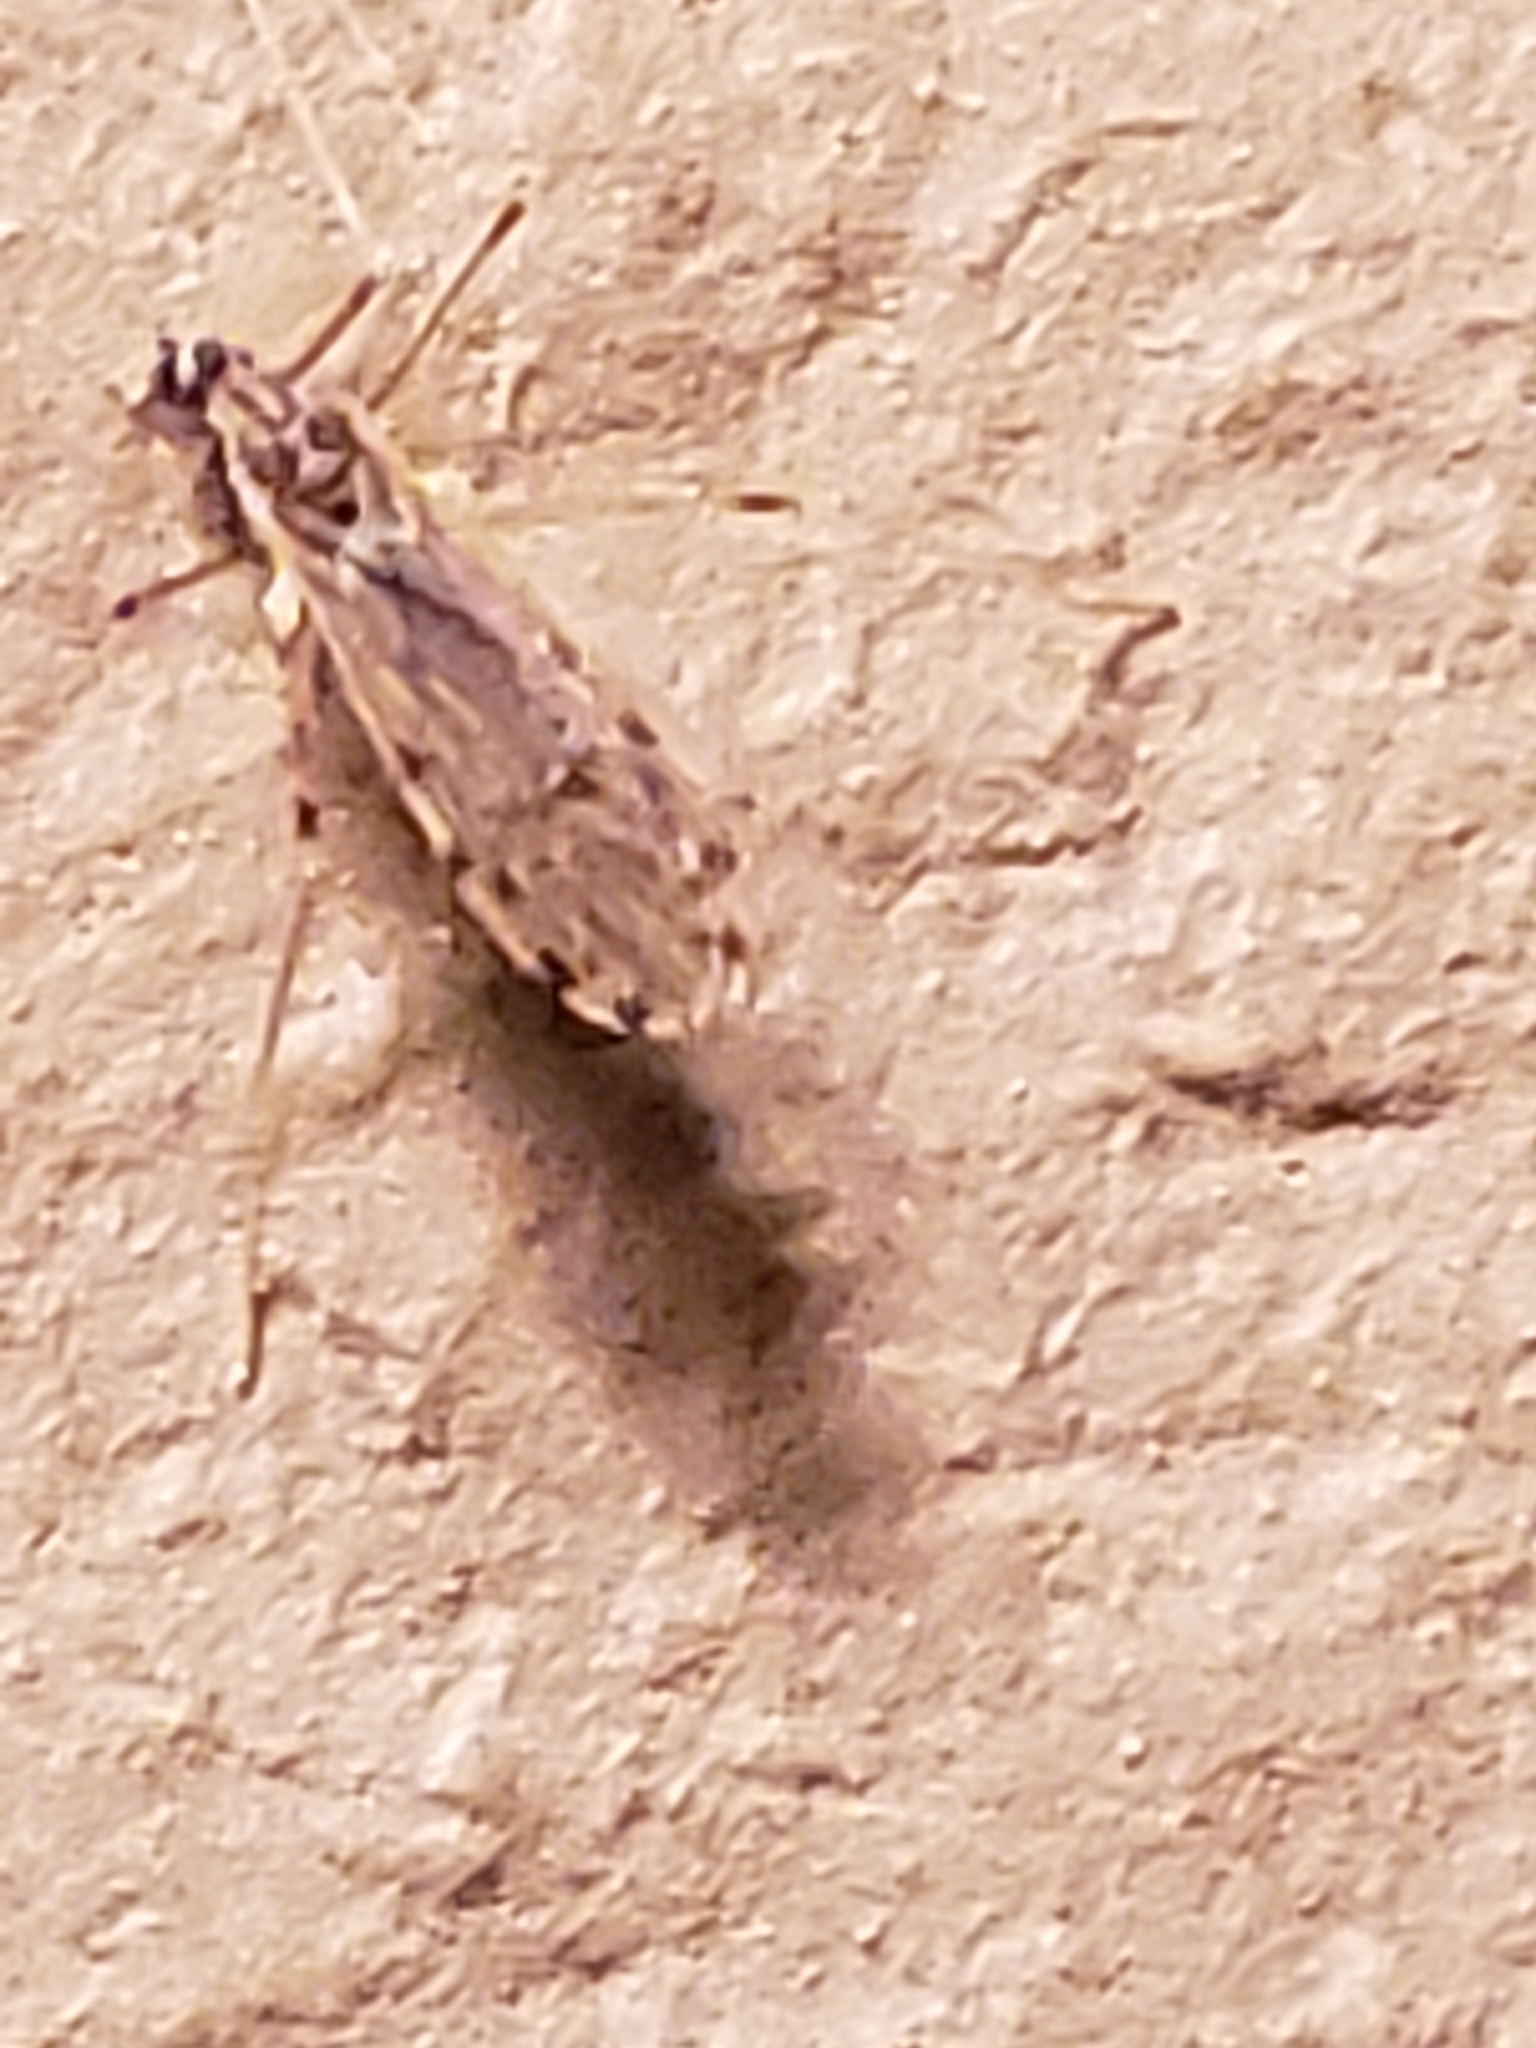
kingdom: Animalia
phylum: Arthropoda
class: Insecta
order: Diptera
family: Limoniidae
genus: Erioptera
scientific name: Erioptera parva
